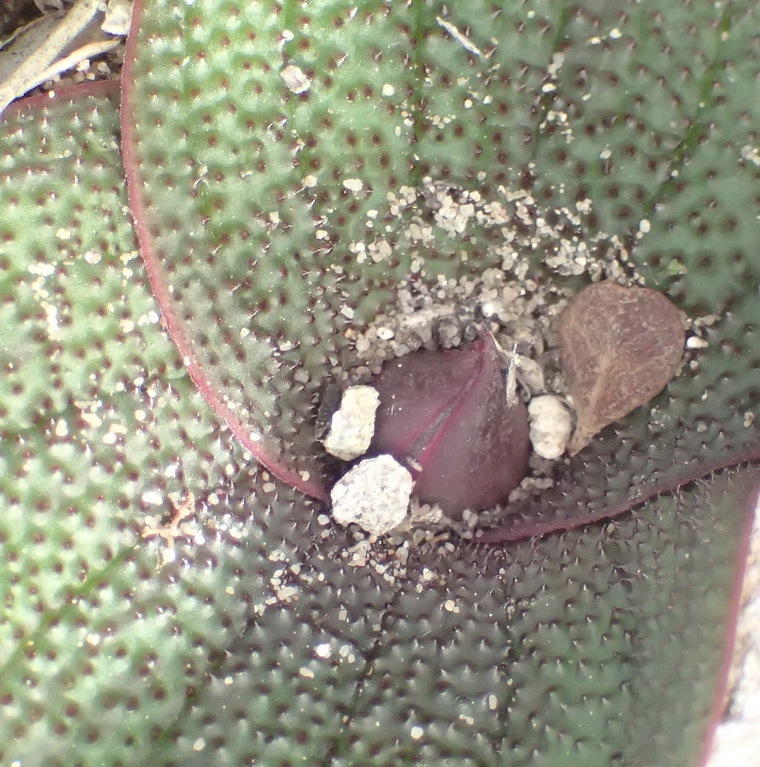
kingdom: Plantae
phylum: Tracheophyta
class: Liliopsida
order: Asparagales
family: Asparagaceae
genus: Massonia
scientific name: Massonia pustulata
